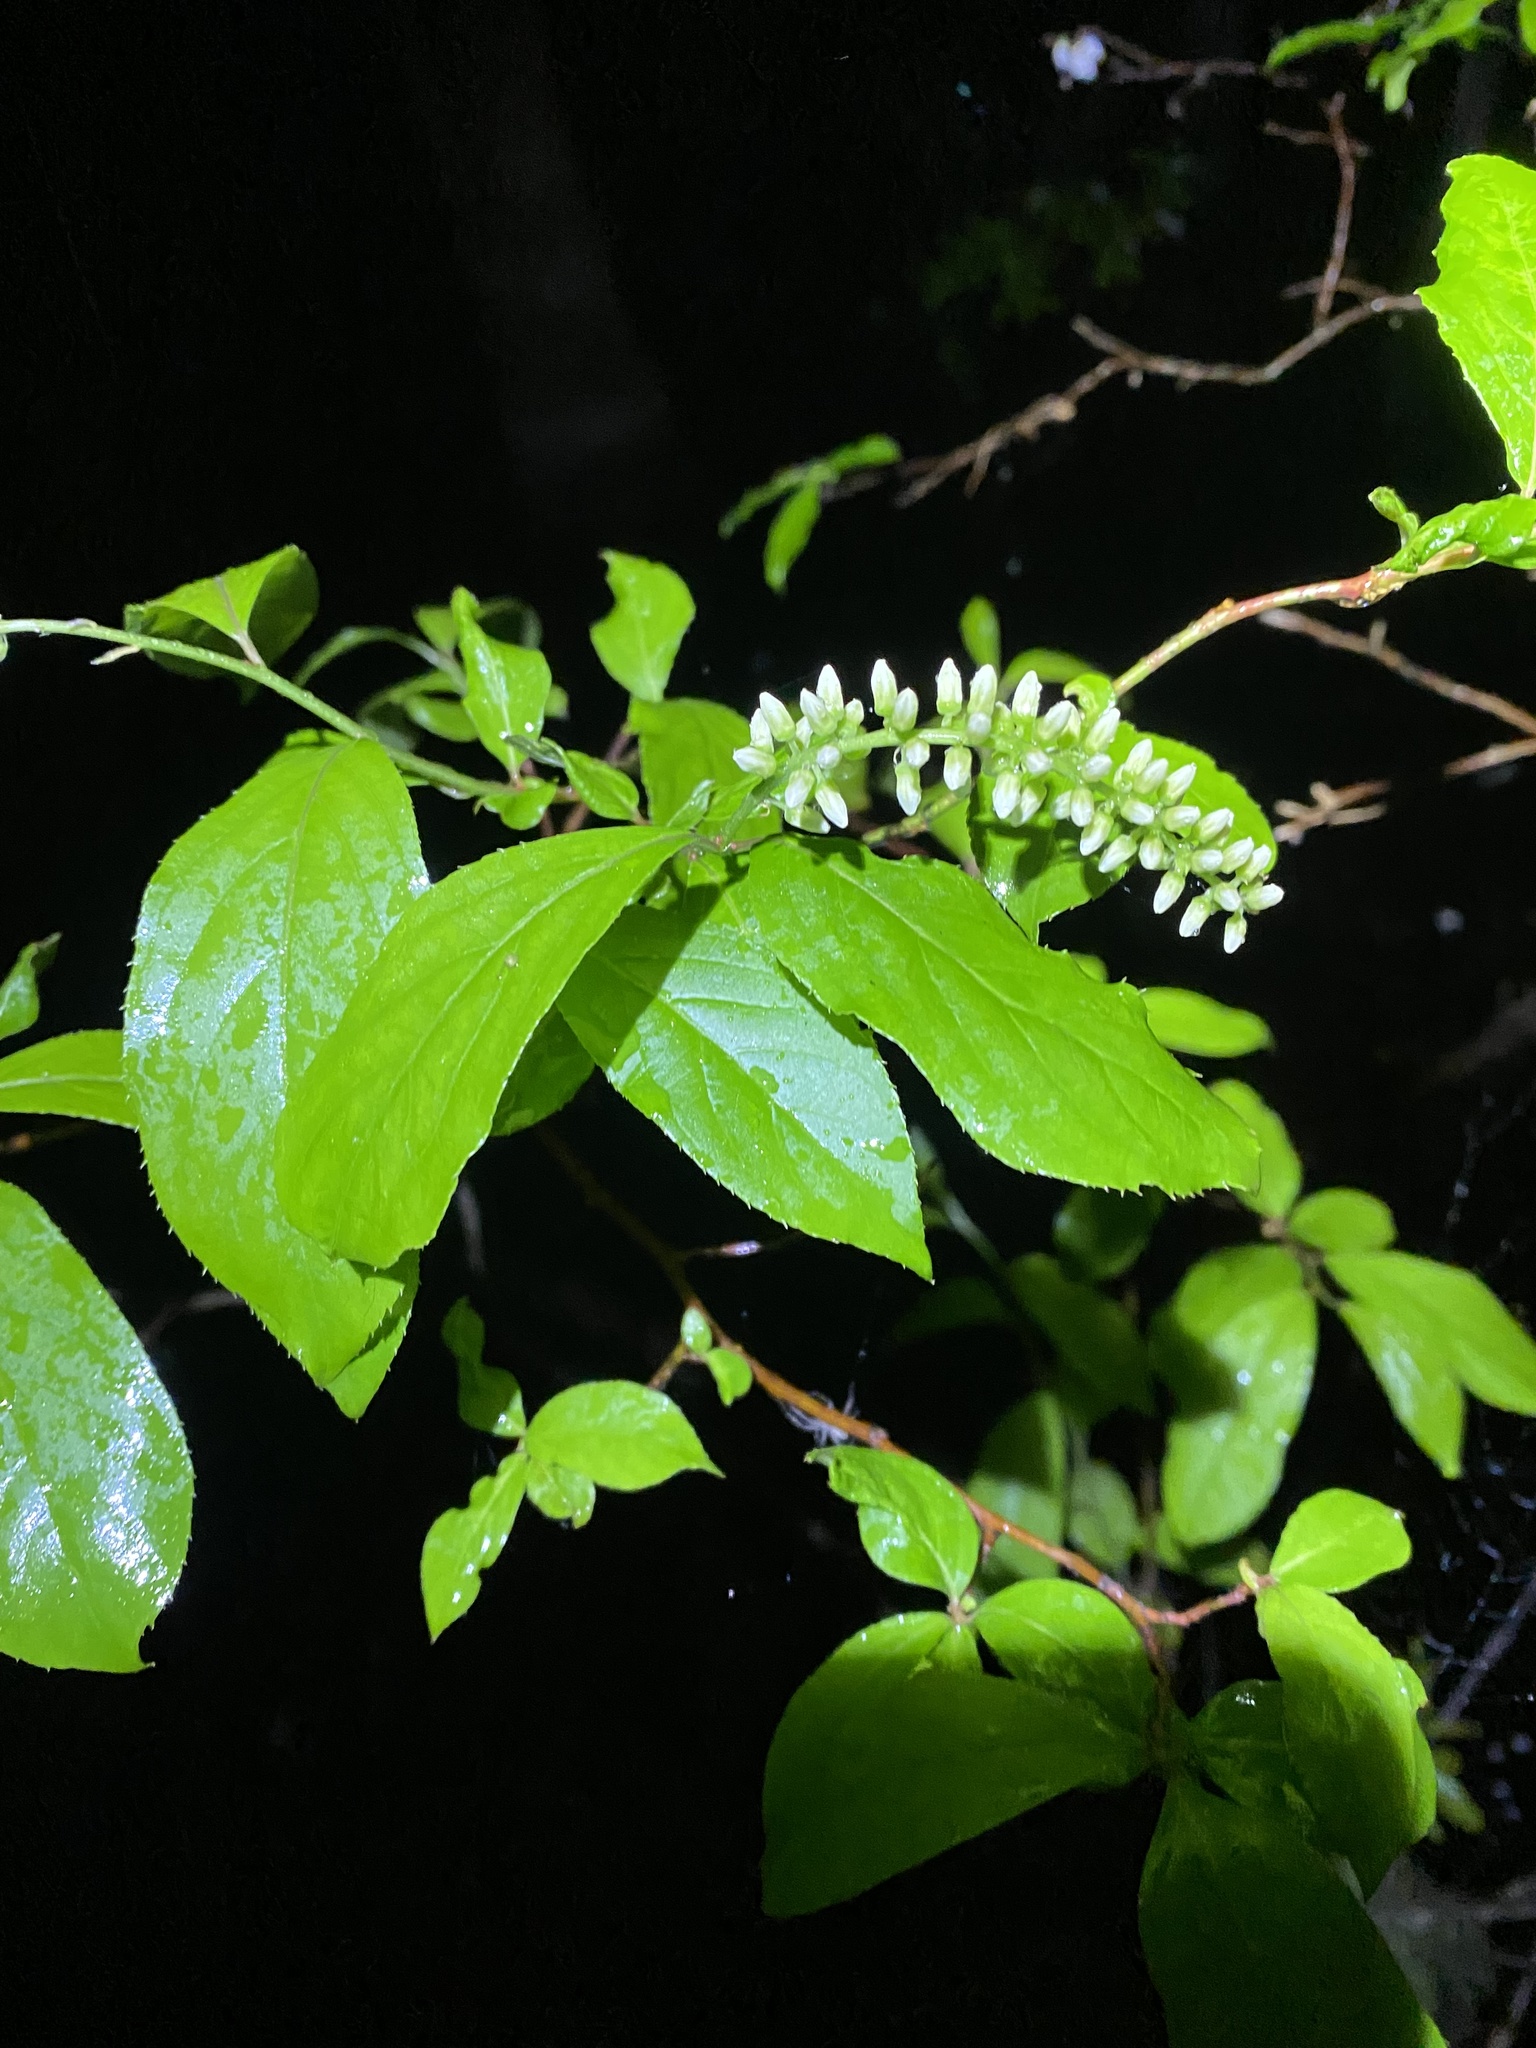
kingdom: Plantae
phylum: Tracheophyta
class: Magnoliopsida
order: Saxifragales
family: Iteaceae
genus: Itea
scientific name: Itea virginica
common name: Sweetspire
